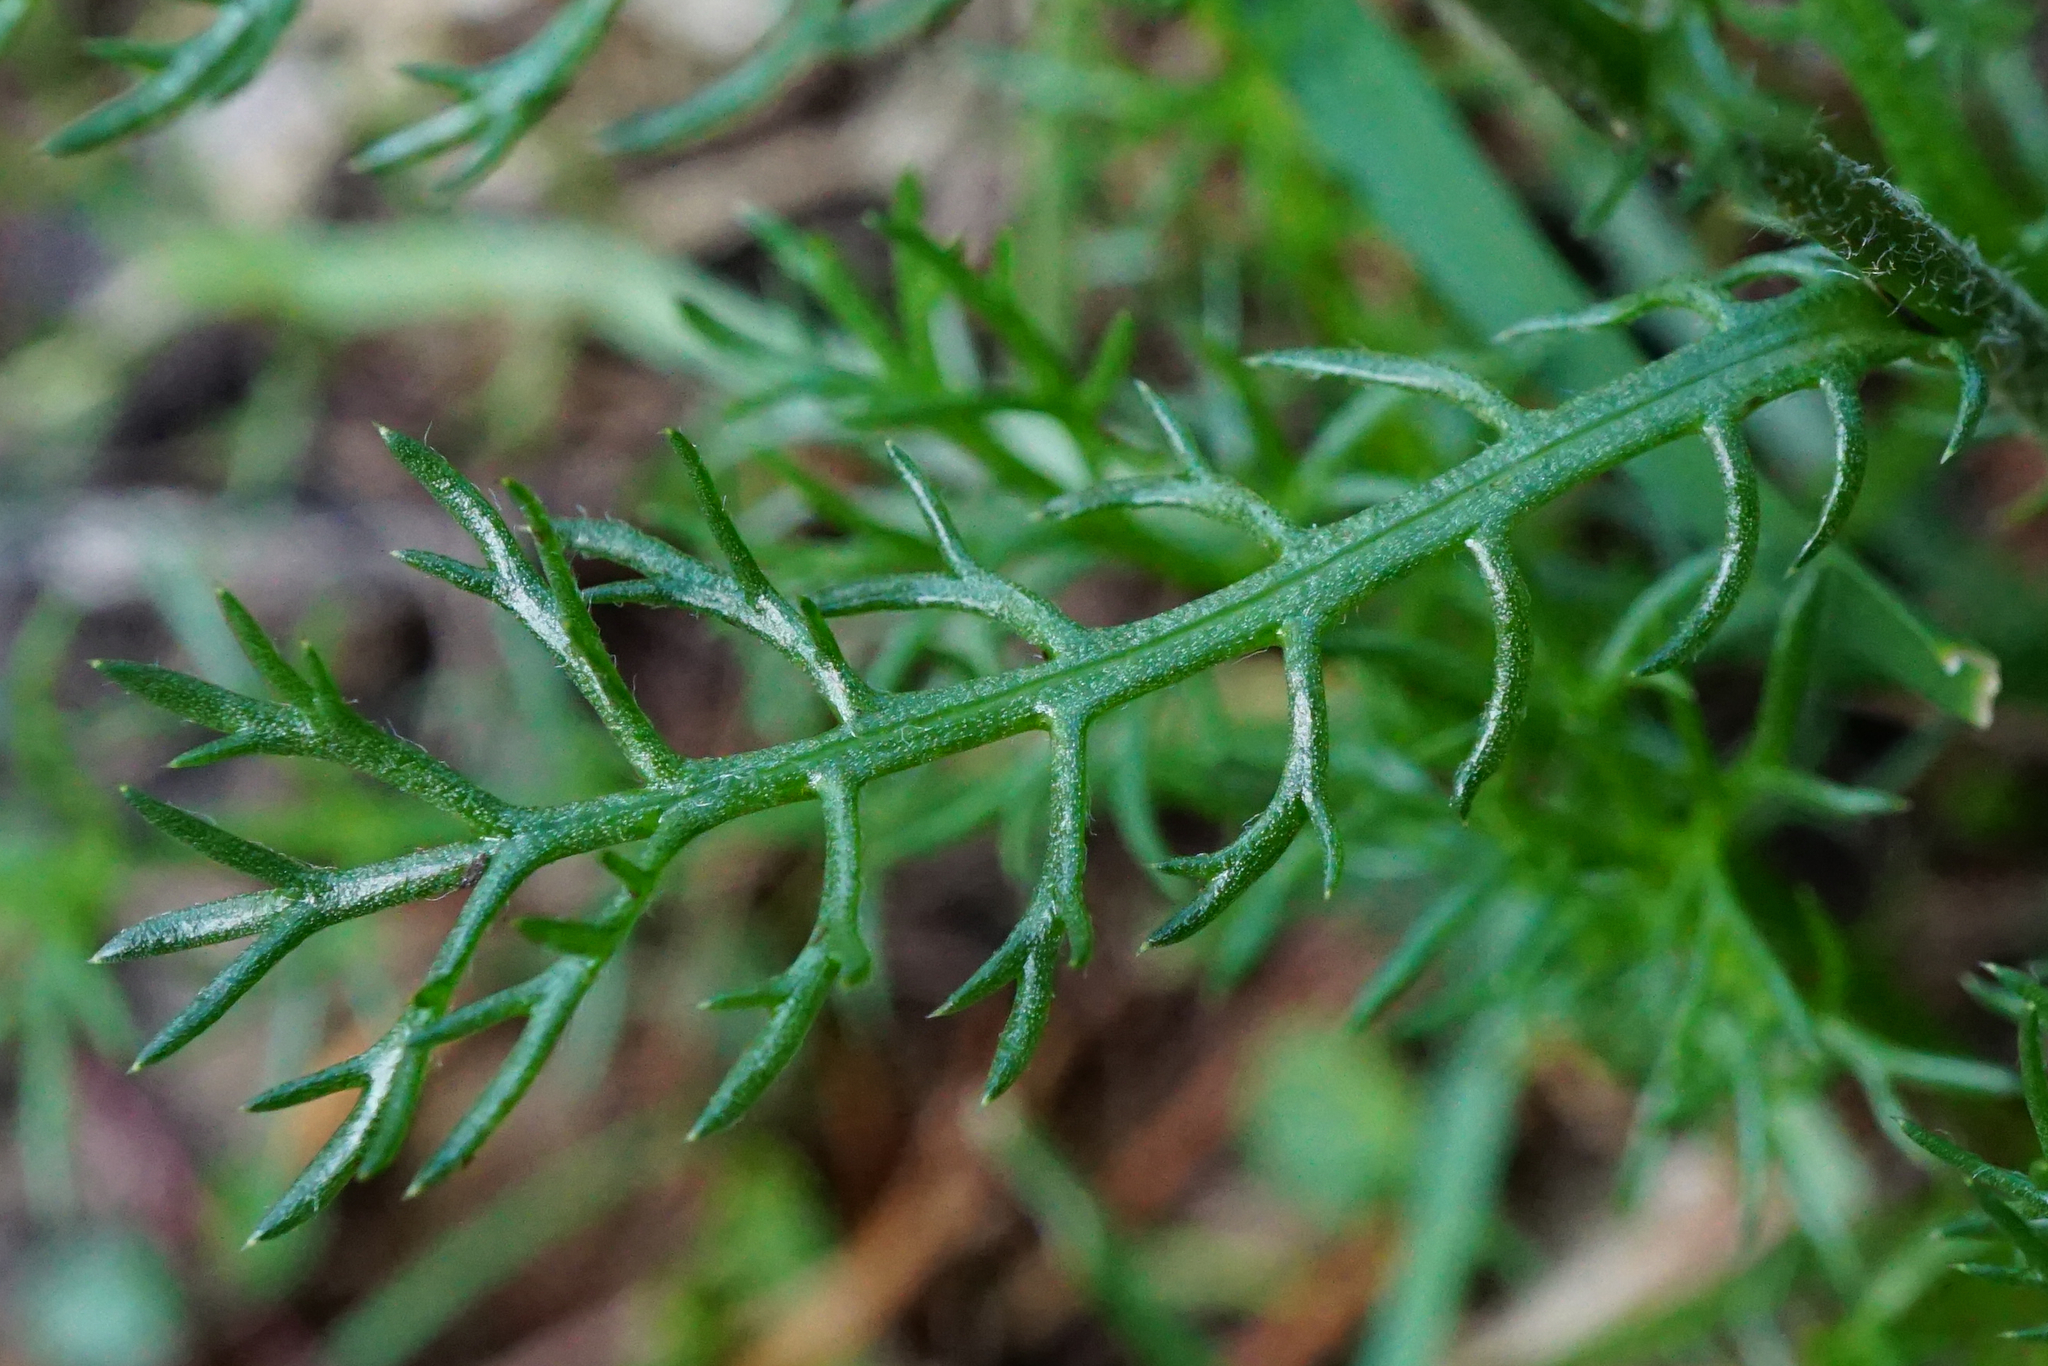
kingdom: Plantae
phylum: Tracheophyta
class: Magnoliopsida
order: Asterales
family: Asteraceae
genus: Achillea
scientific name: Achillea atrata
